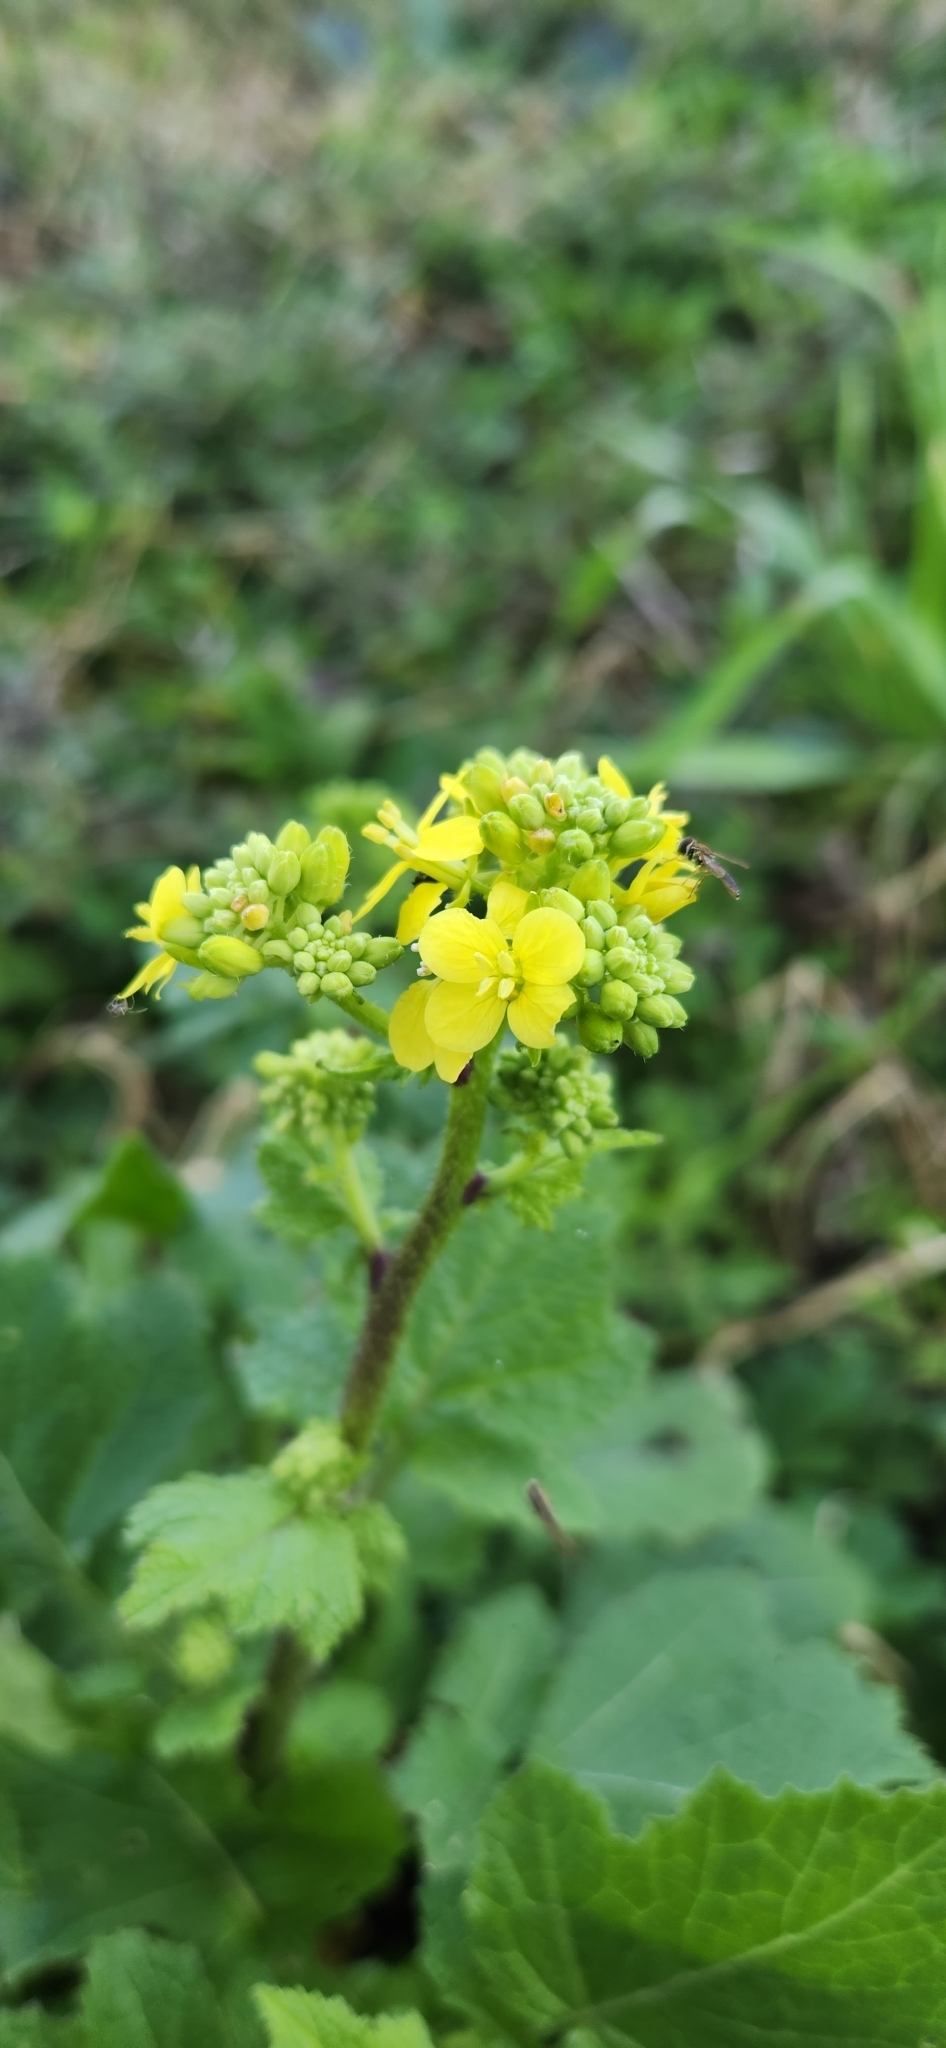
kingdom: Plantae
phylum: Tracheophyta
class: Magnoliopsida
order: Brassicales
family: Brassicaceae
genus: Rapistrum
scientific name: Rapistrum rugosum
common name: Annual bastardcabbage
